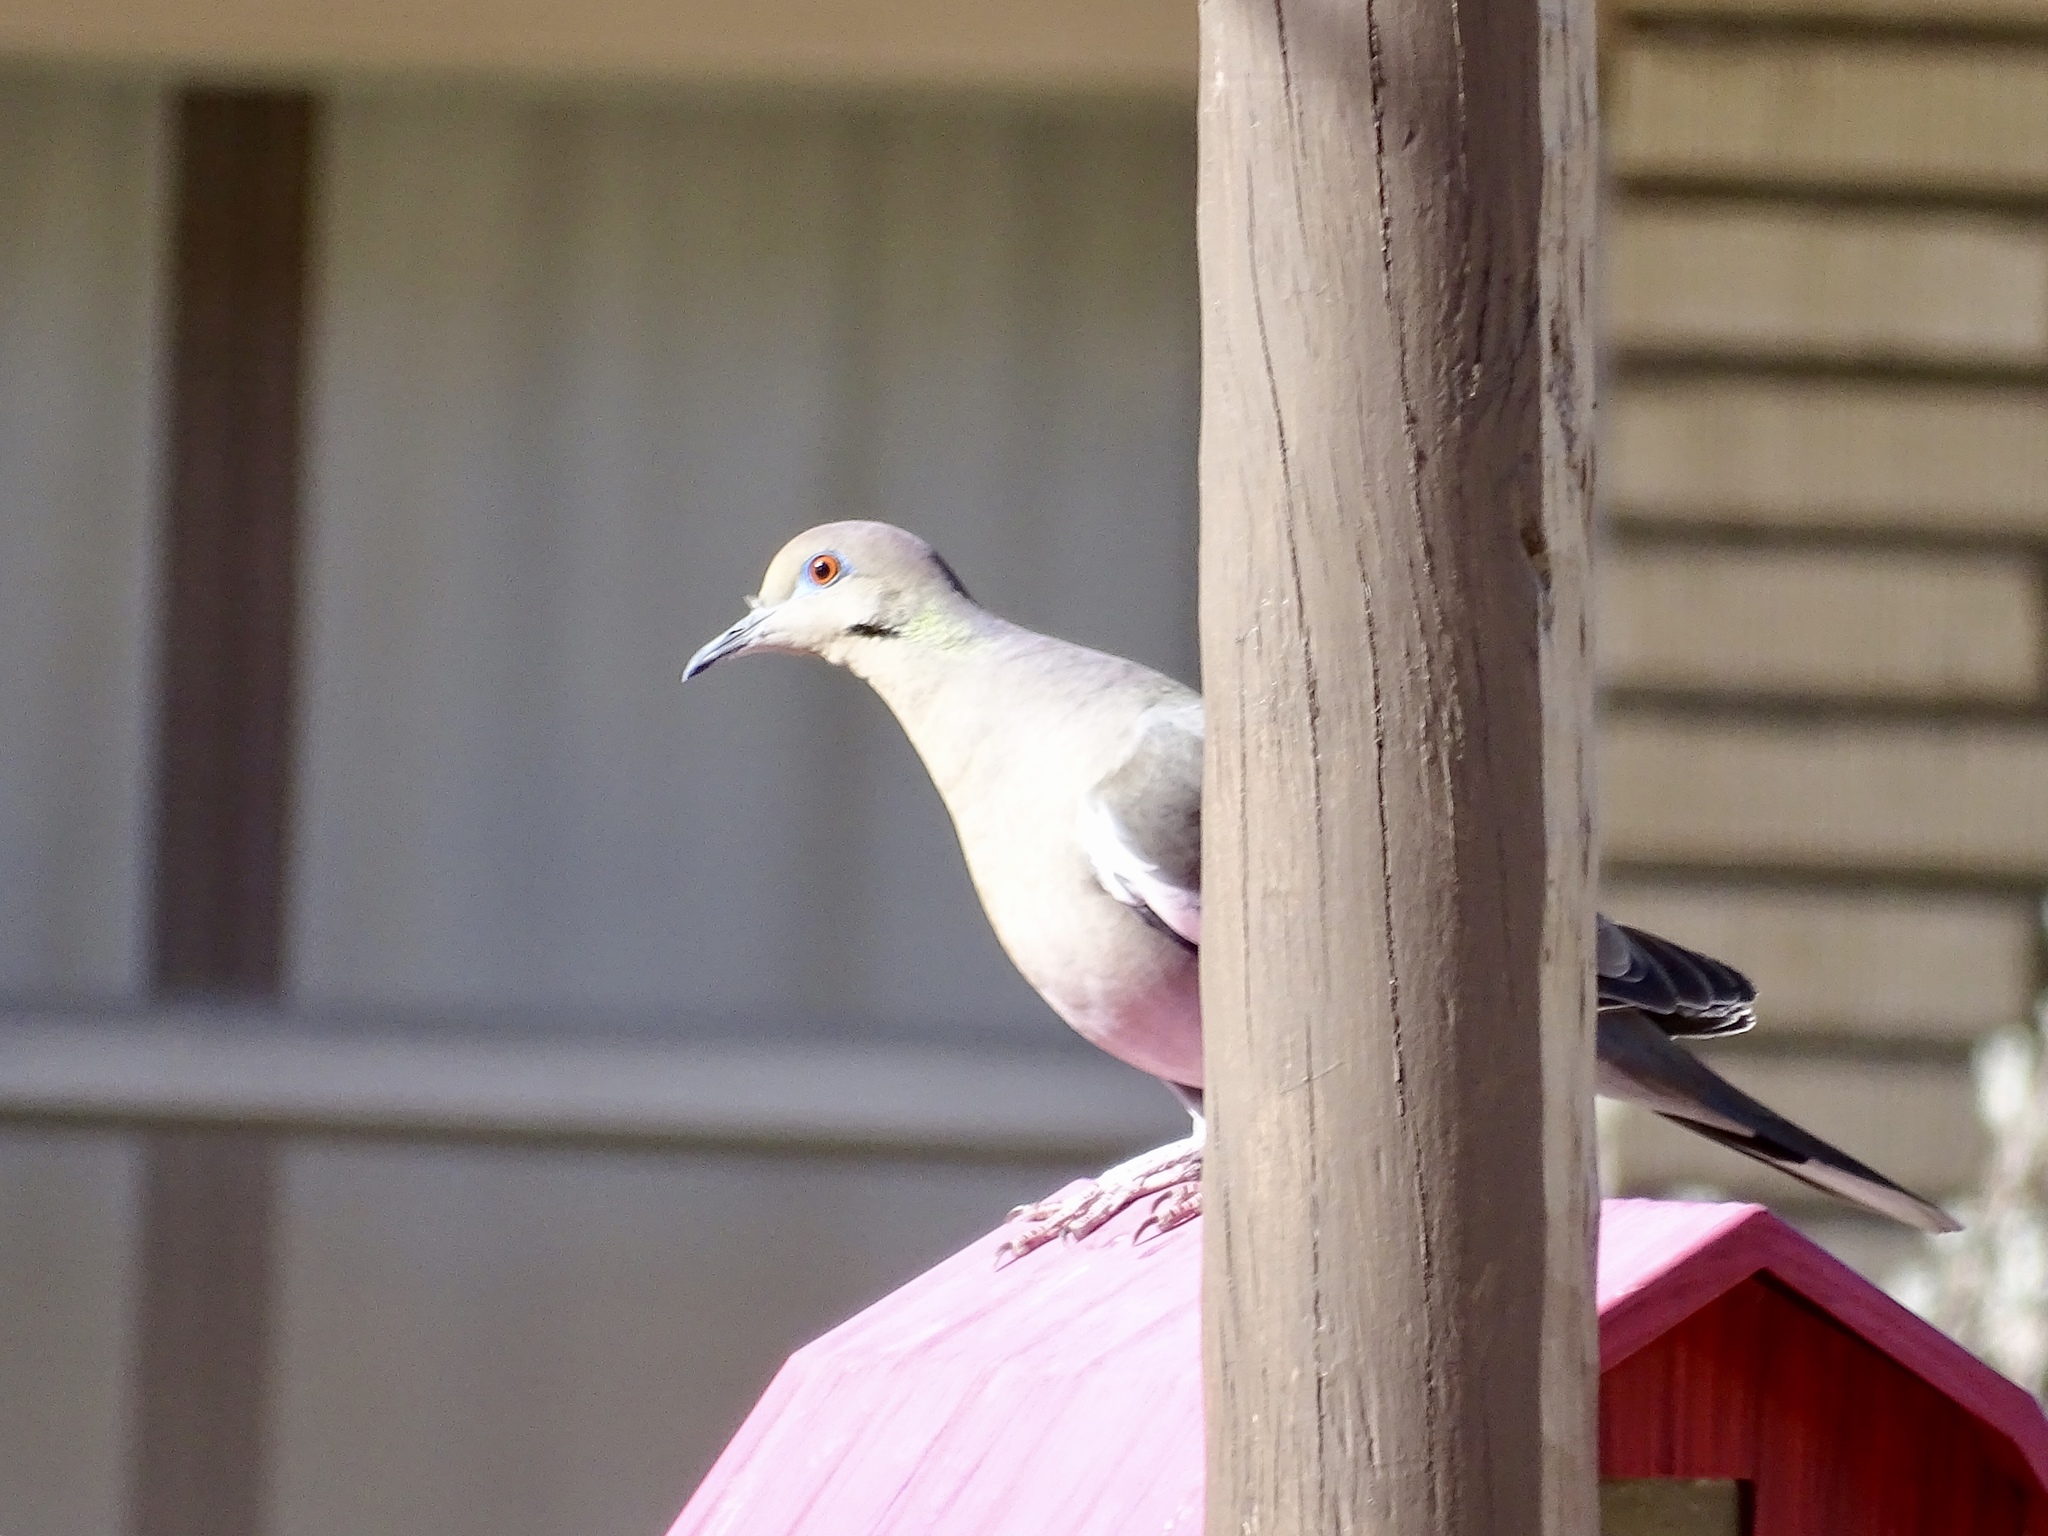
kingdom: Animalia
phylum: Chordata
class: Aves
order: Columbiformes
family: Columbidae
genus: Zenaida
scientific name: Zenaida asiatica
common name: White-winged dove
